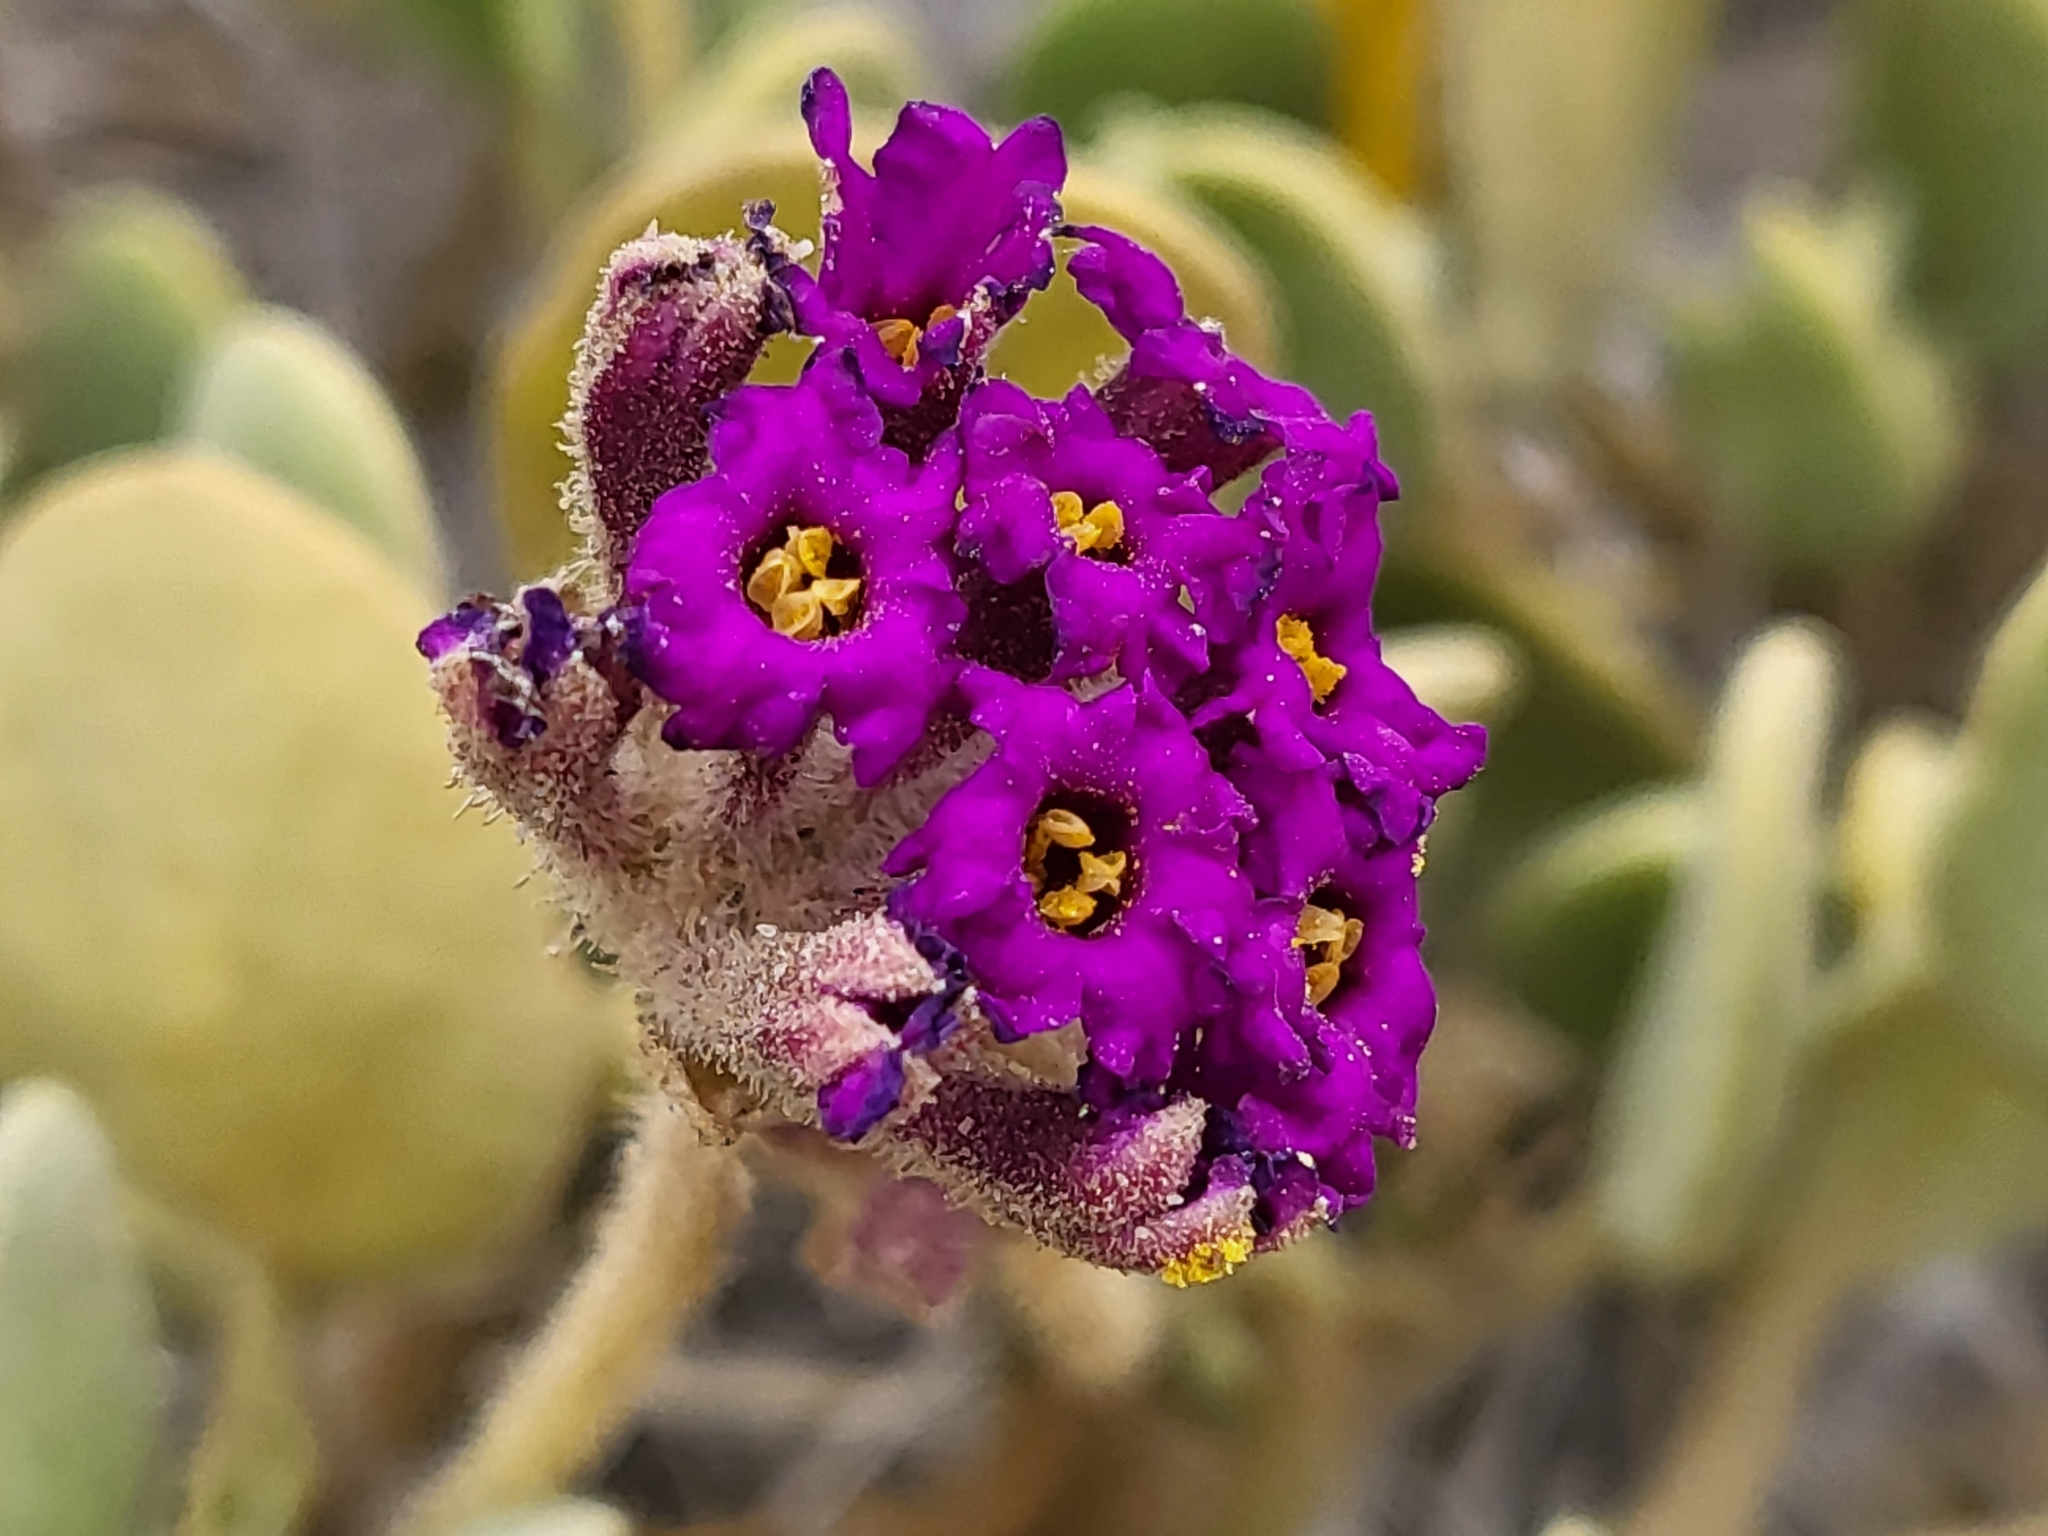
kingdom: Plantae
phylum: Tracheophyta
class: Magnoliopsida
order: Caryophyllales
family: Nyctaginaceae
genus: Abronia
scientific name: Abronia maritima
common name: Red sand-verbena
